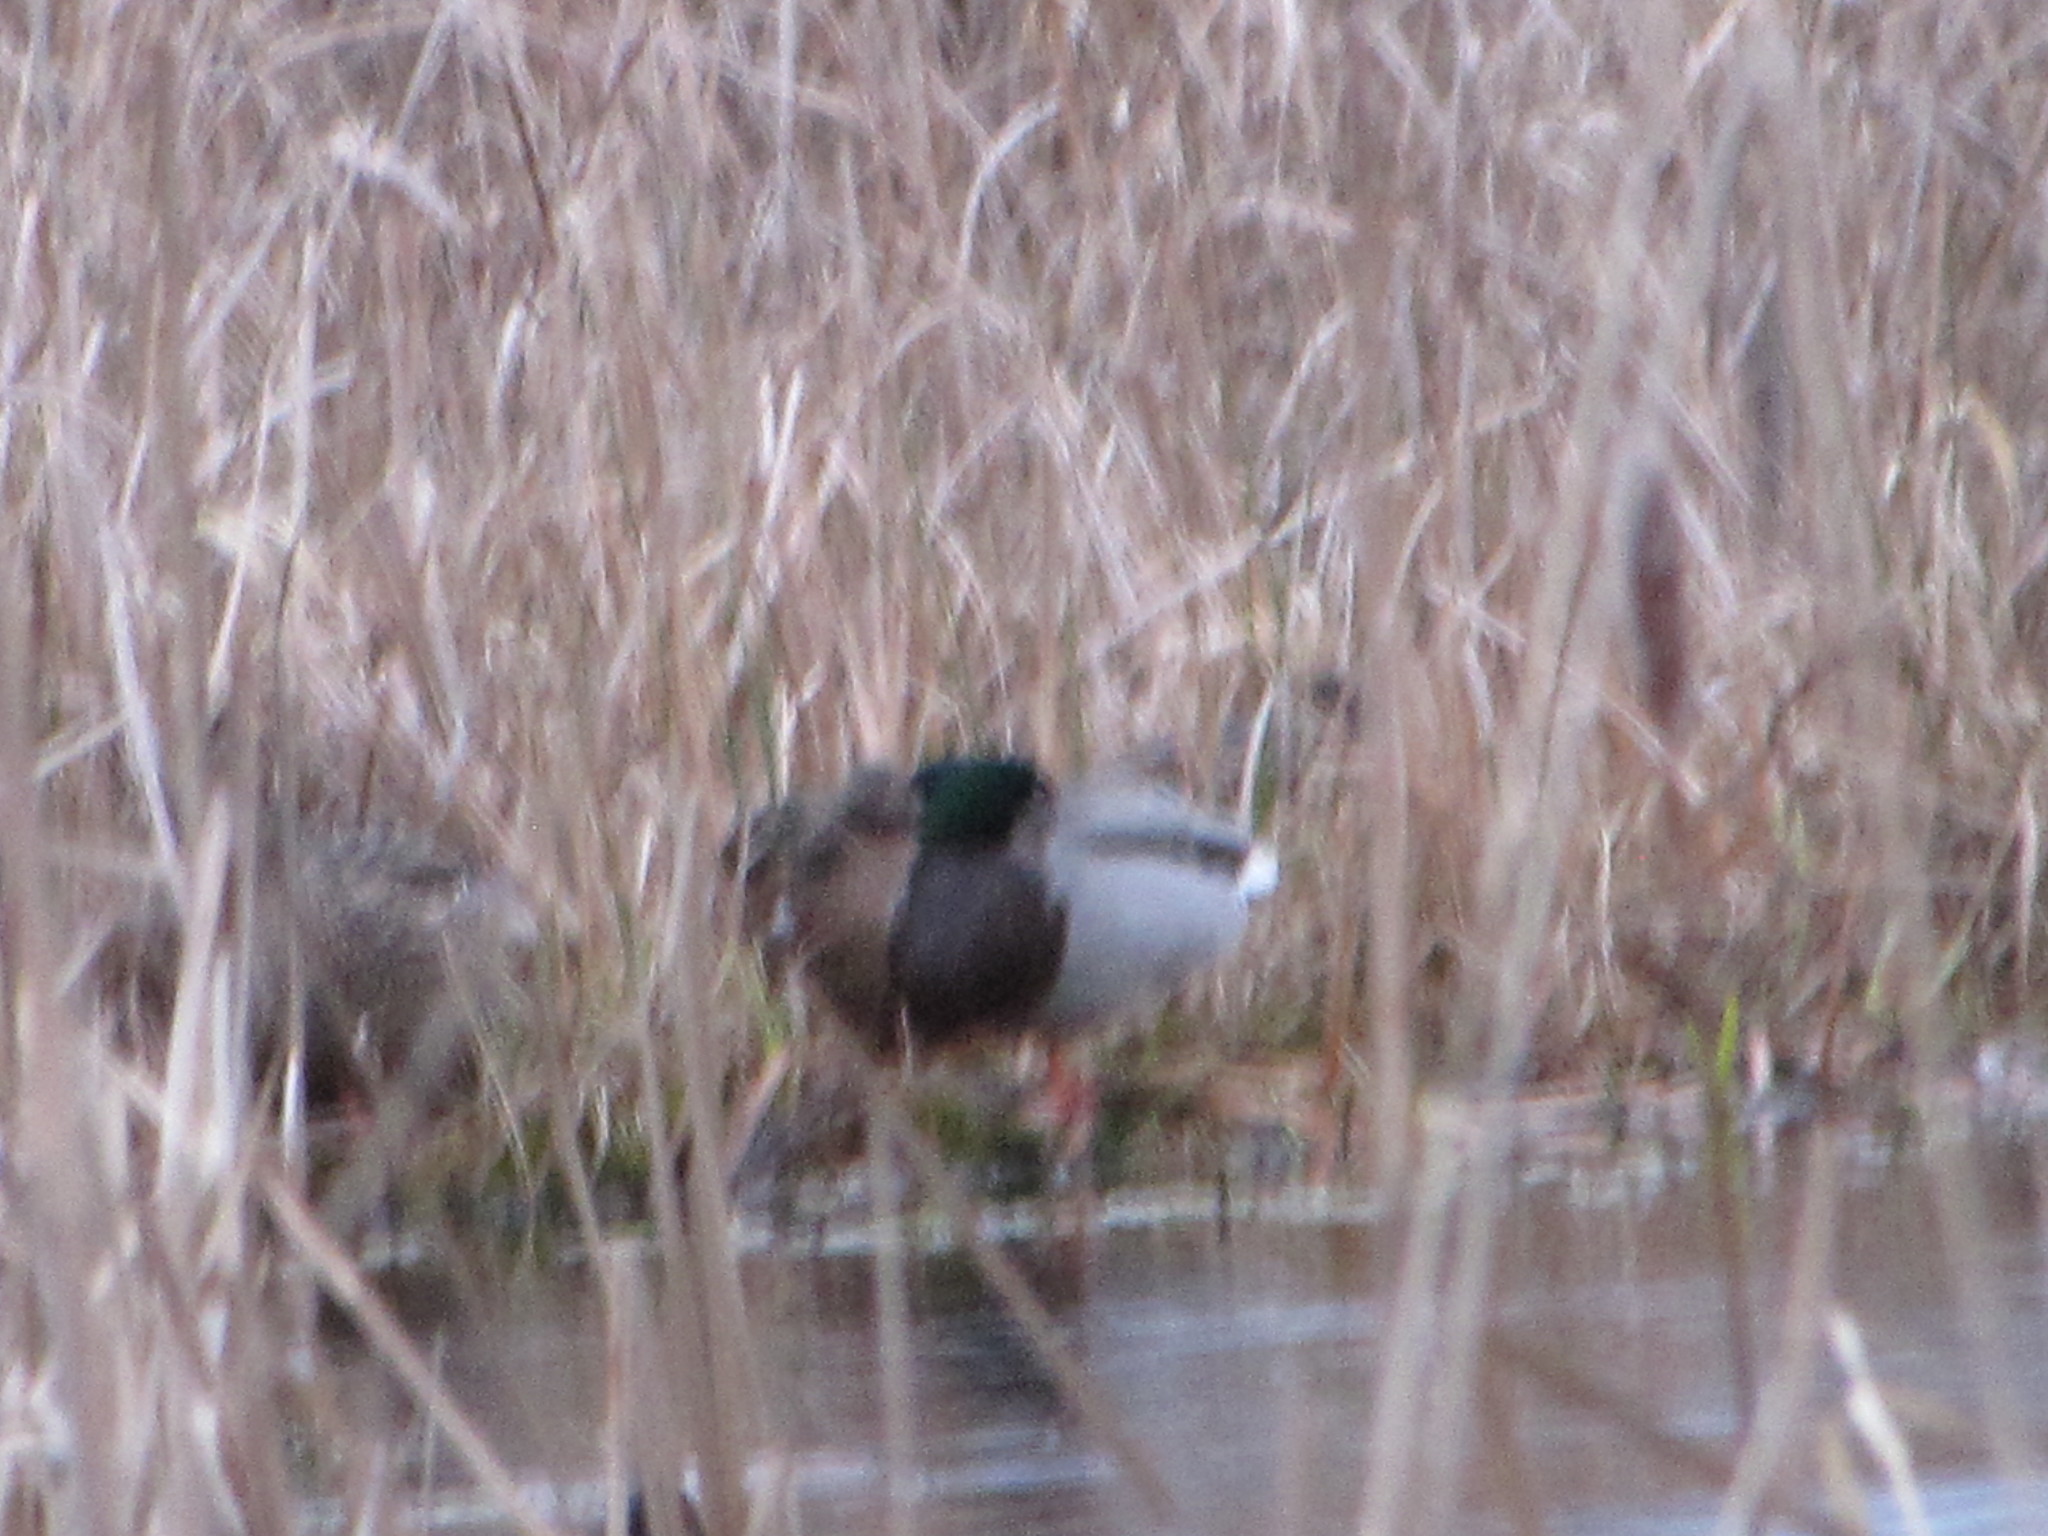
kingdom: Animalia
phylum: Chordata
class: Aves
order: Anseriformes
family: Anatidae
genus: Anas
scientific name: Anas platyrhynchos
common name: Mallard
